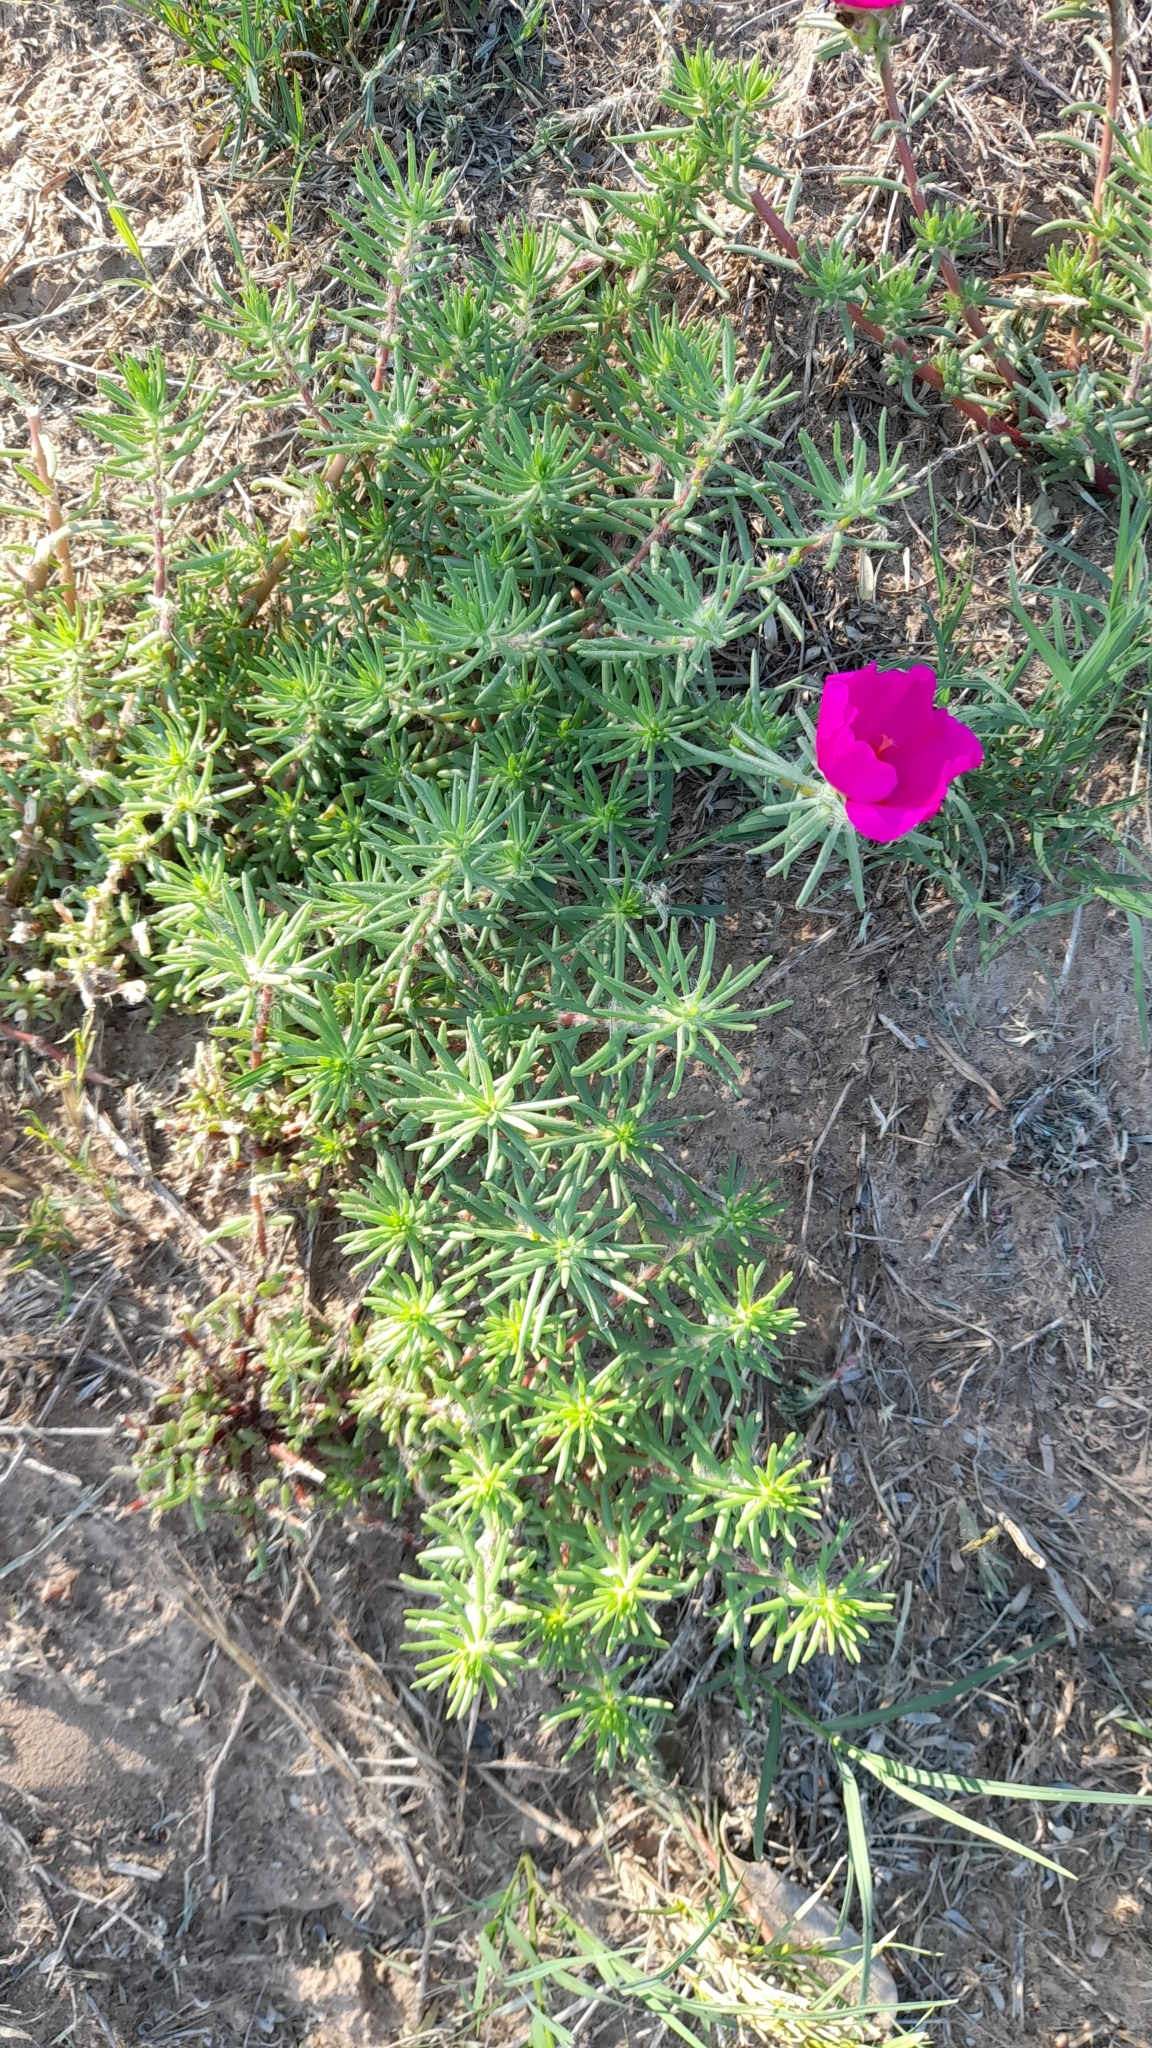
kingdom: Plantae
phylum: Tracheophyta
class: Magnoliopsida
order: Caryophyllales
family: Portulacaceae
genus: Portulaca
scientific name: Portulaca grandiflora
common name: Moss-rose
